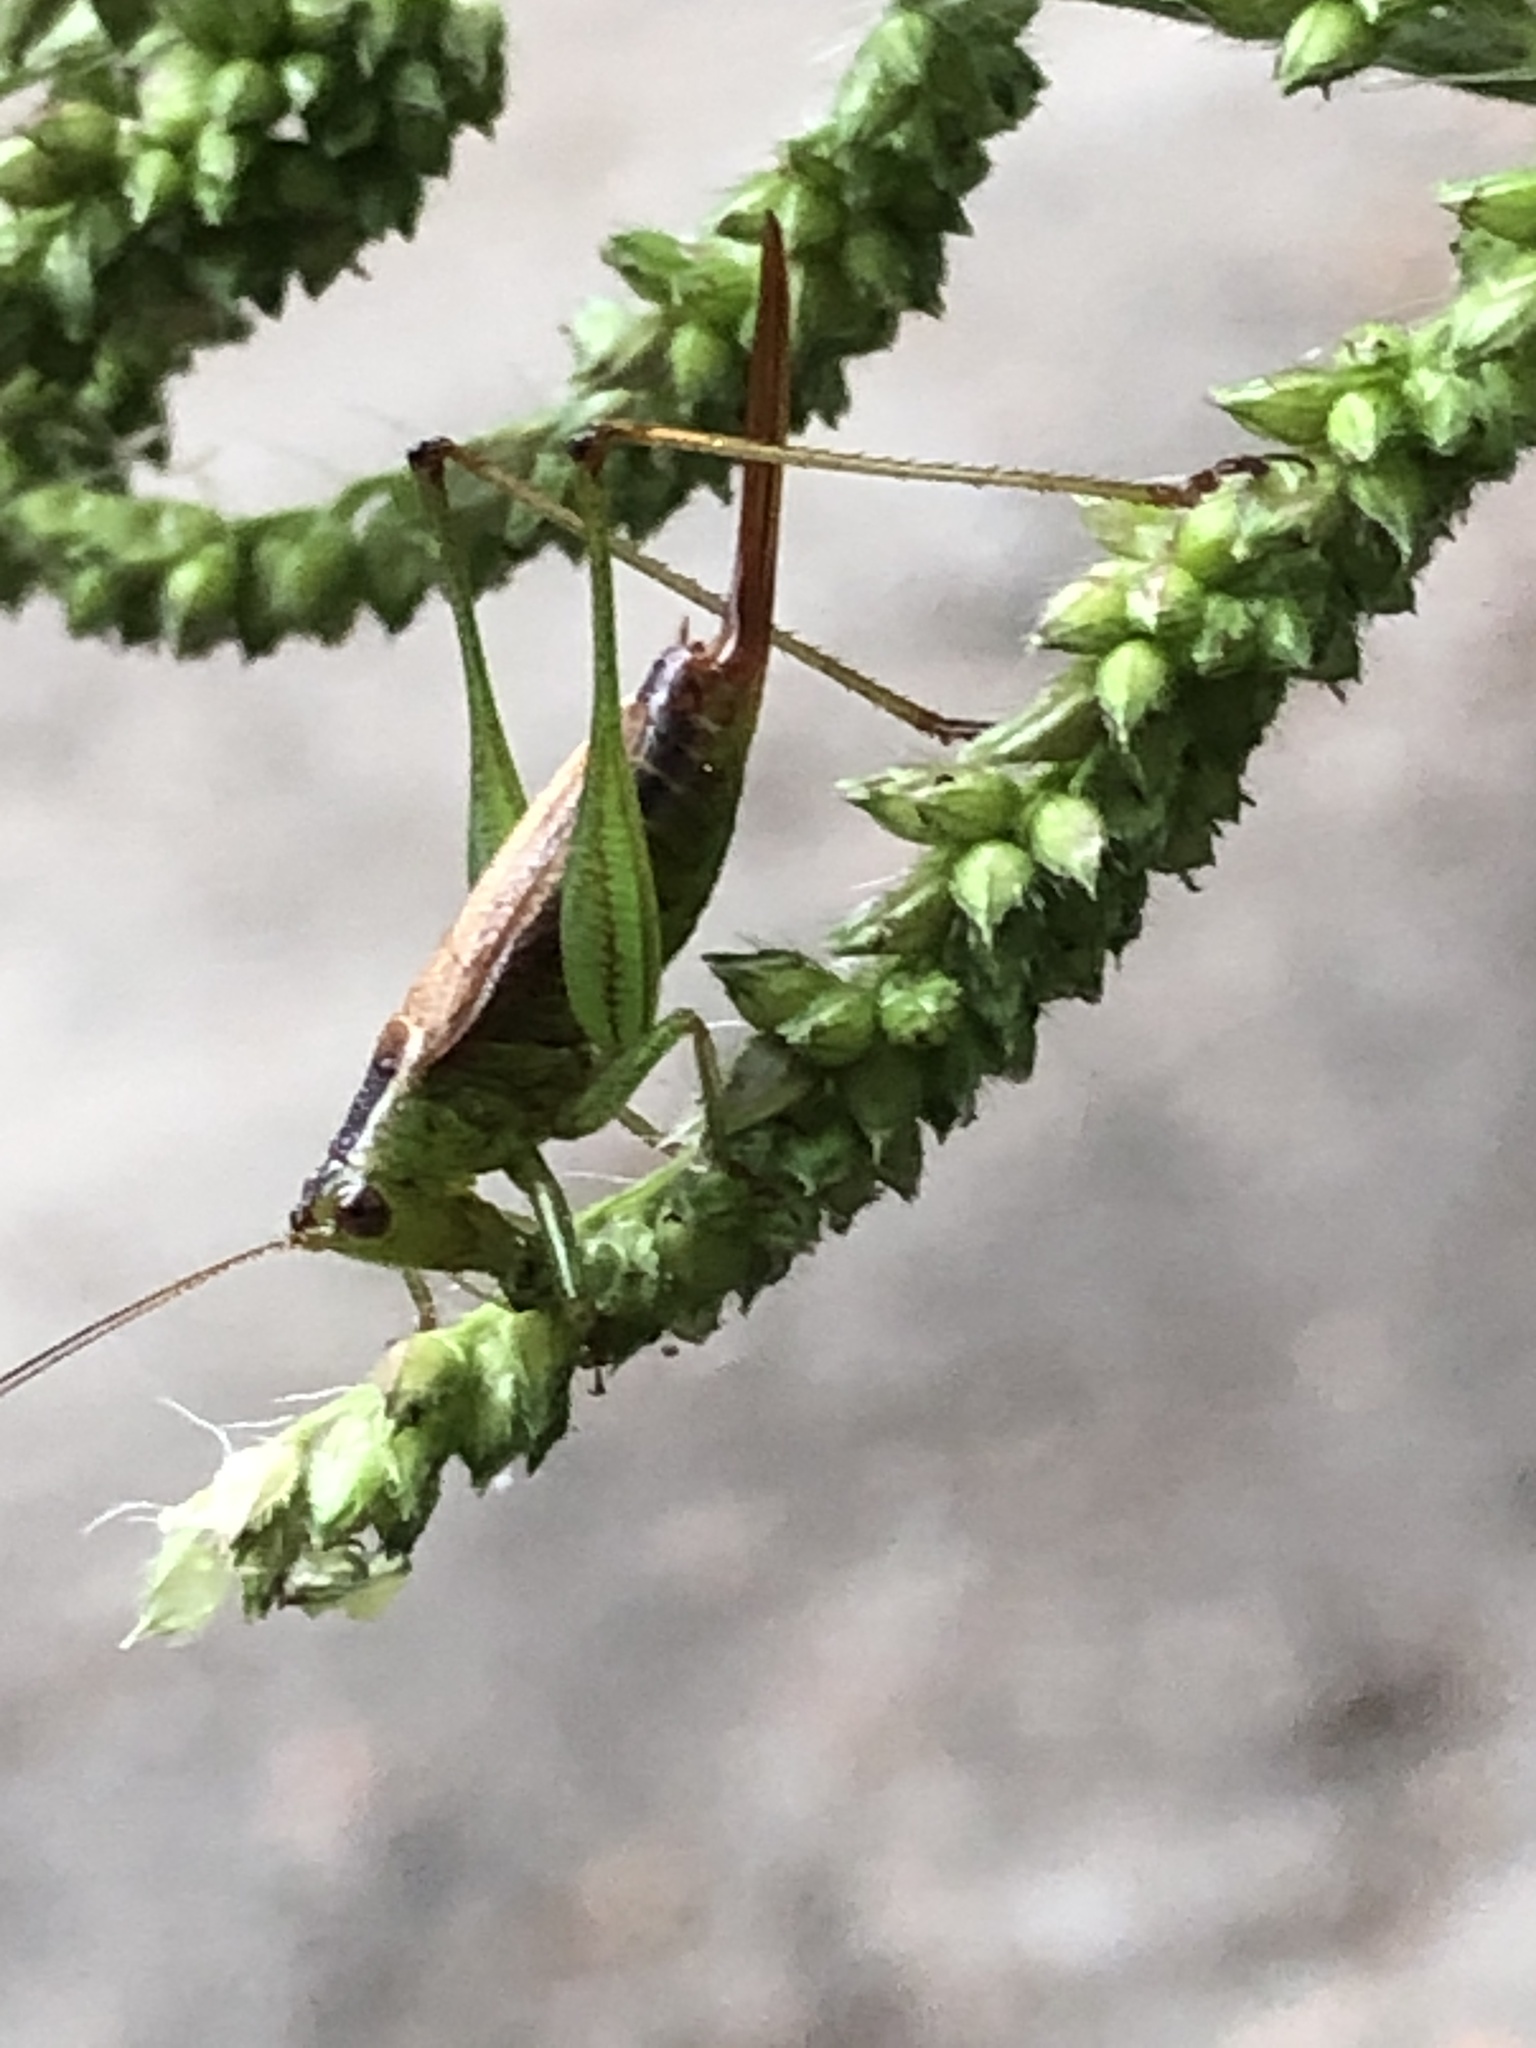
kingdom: Animalia
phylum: Arthropoda
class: Insecta
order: Orthoptera
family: Tettigoniidae
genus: Conocephalus
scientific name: Conocephalus brevipennis
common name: Short-winged meadow katydid
